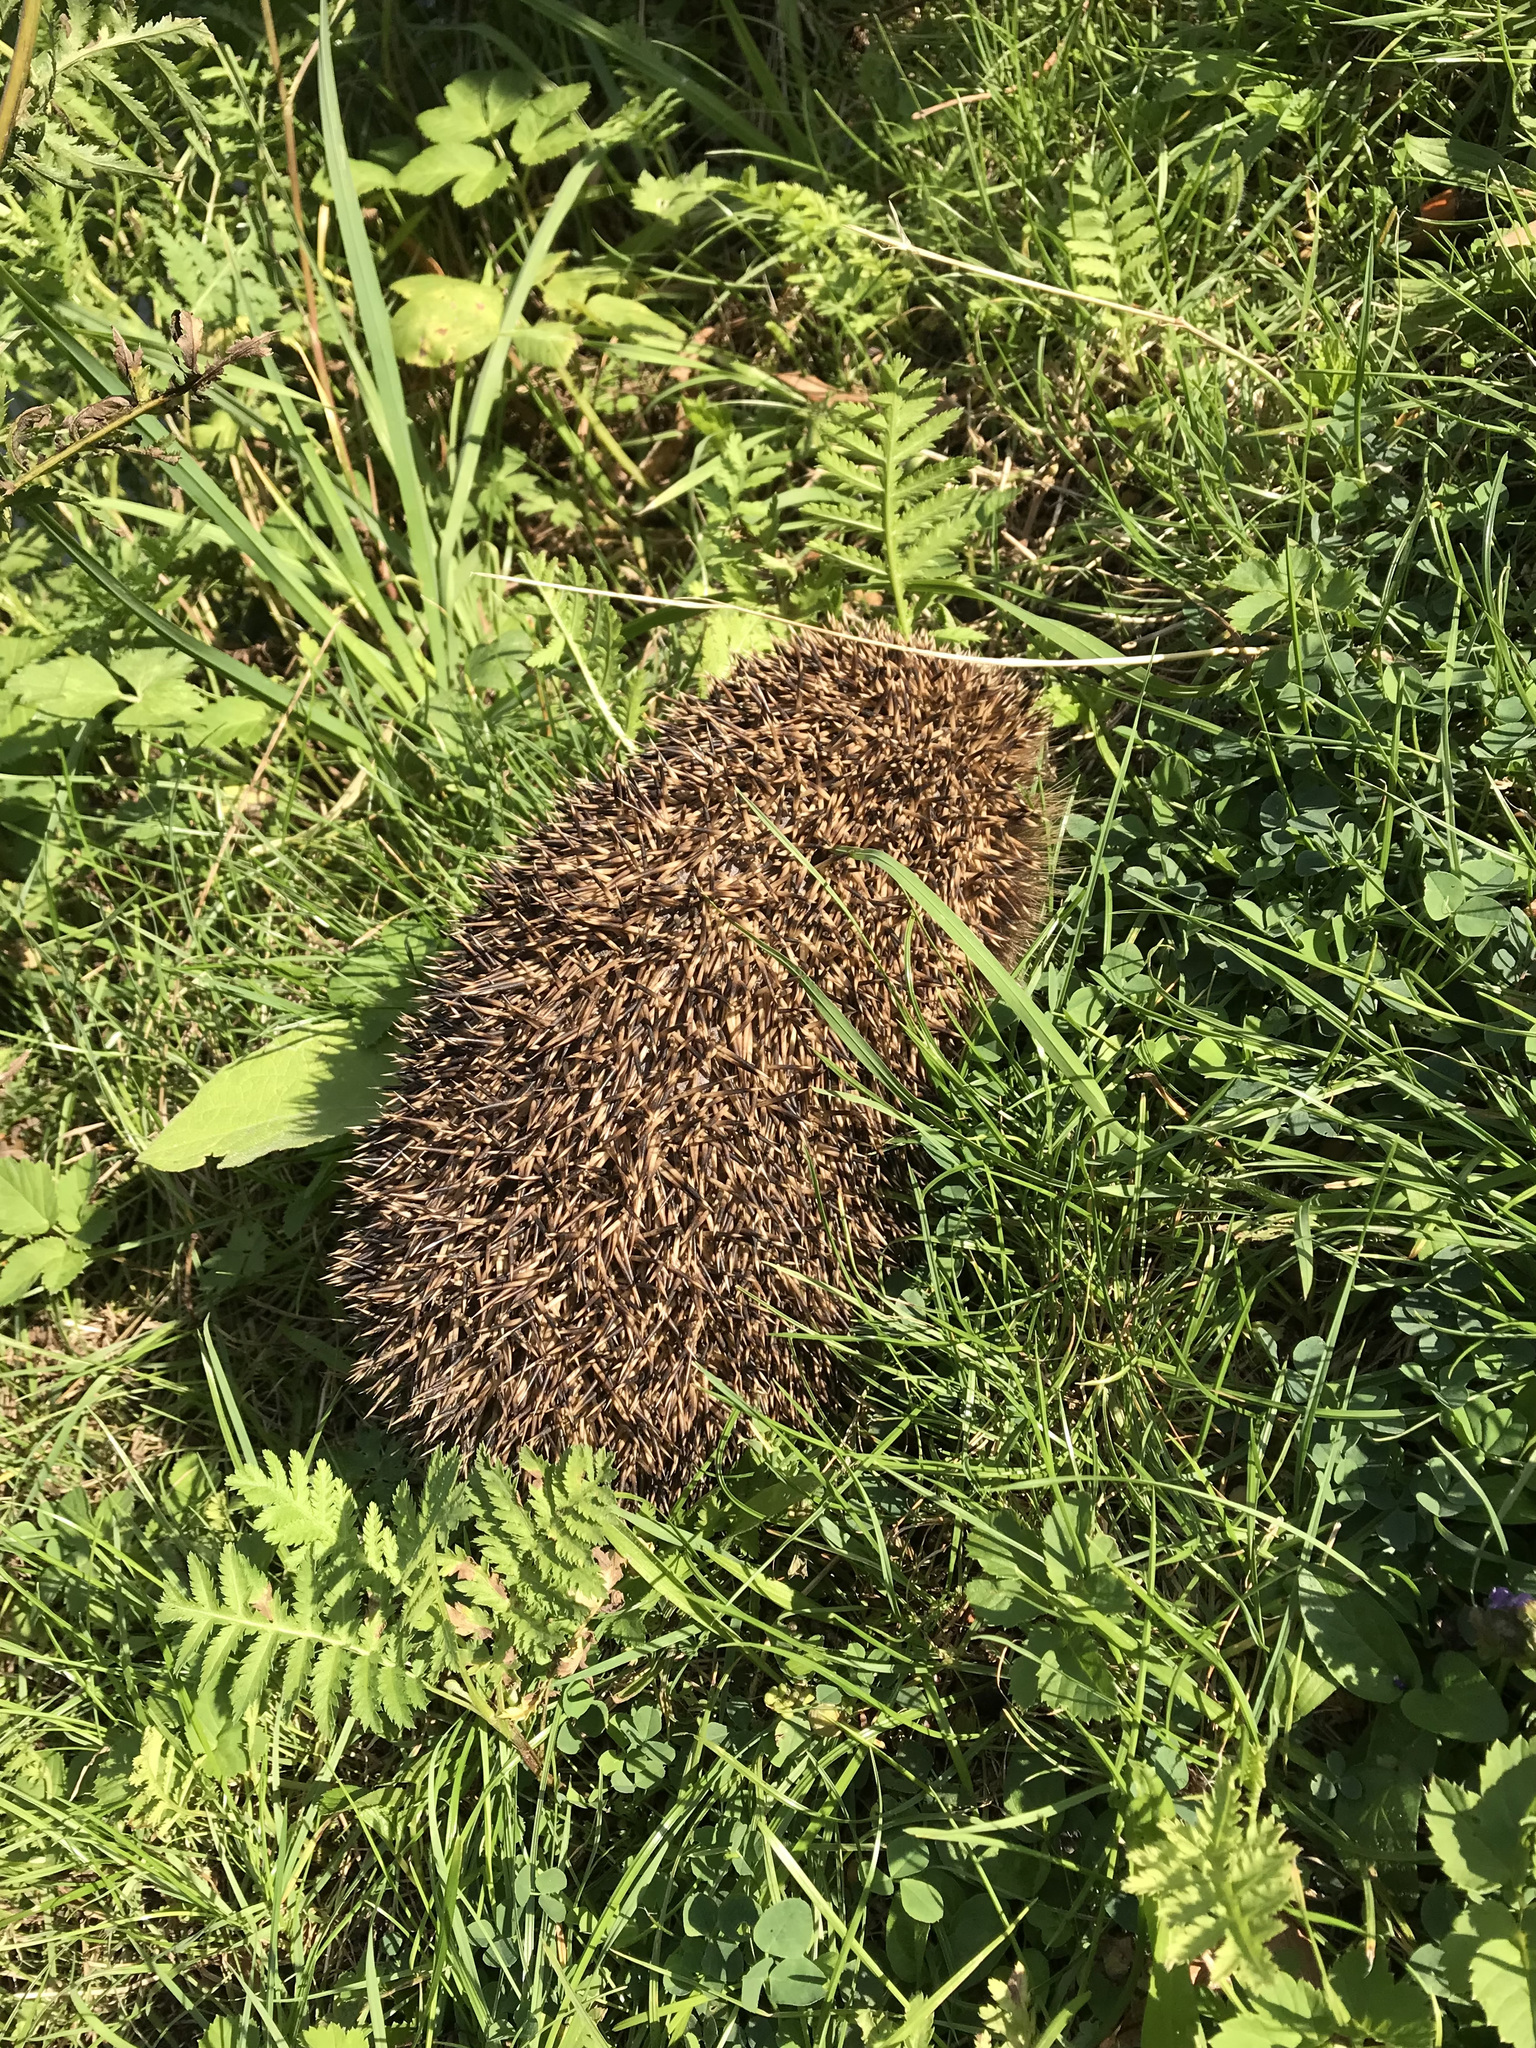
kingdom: Animalia
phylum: Chordata
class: Mammalia
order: Erinaceomorpha
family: Erinaceidae
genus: Erinaceus
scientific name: Erinaceus europaeus
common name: West european hedgehog
